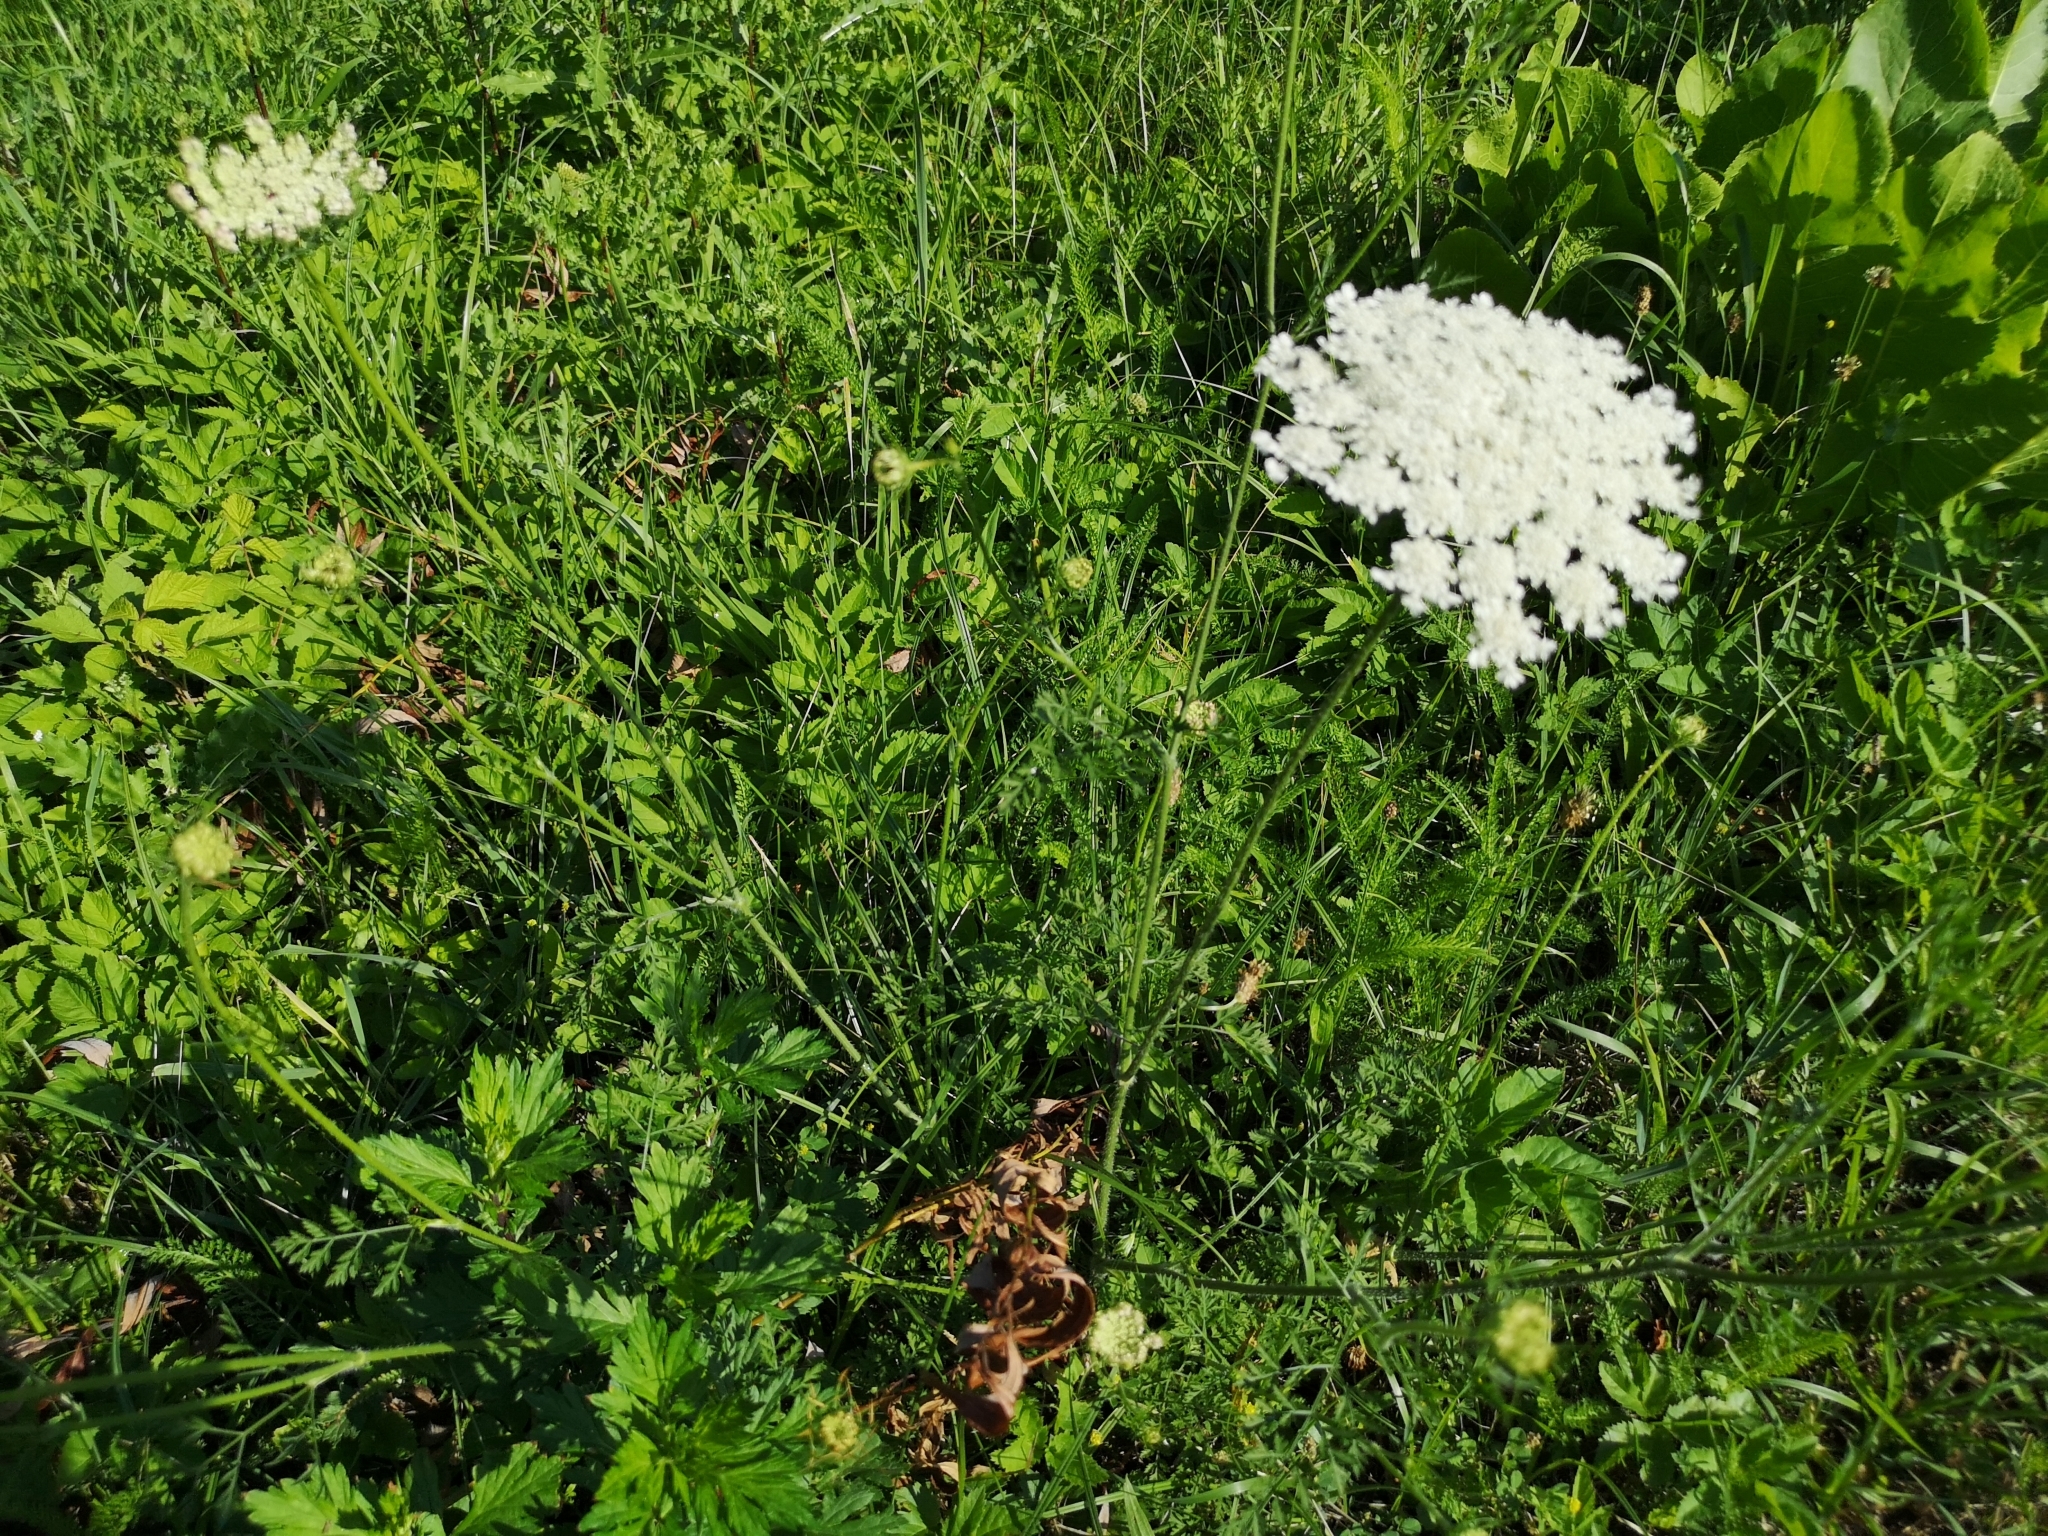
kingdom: Plantae
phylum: Tracheophyta
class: Magnoliopsida
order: Apiales
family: Apiaceae
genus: Daucus
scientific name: Daucus carota
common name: Wild carrot
